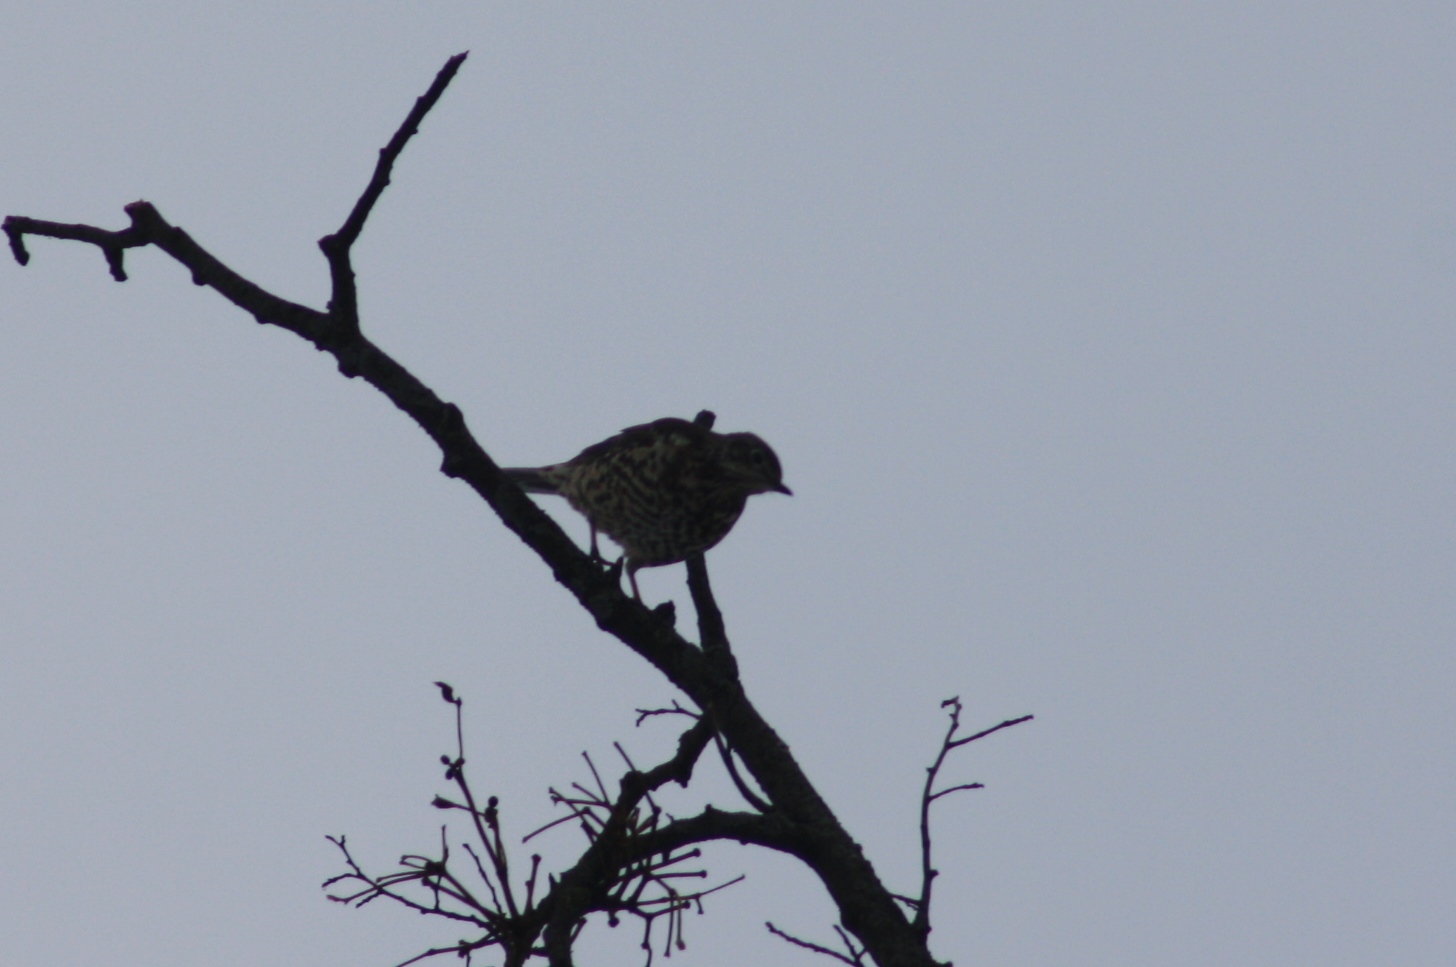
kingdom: Animalia
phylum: Chordata
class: Aves
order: Passeriformes
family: Turdidae
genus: Turdus
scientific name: Turdus viscivorus
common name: Mistle thrush
